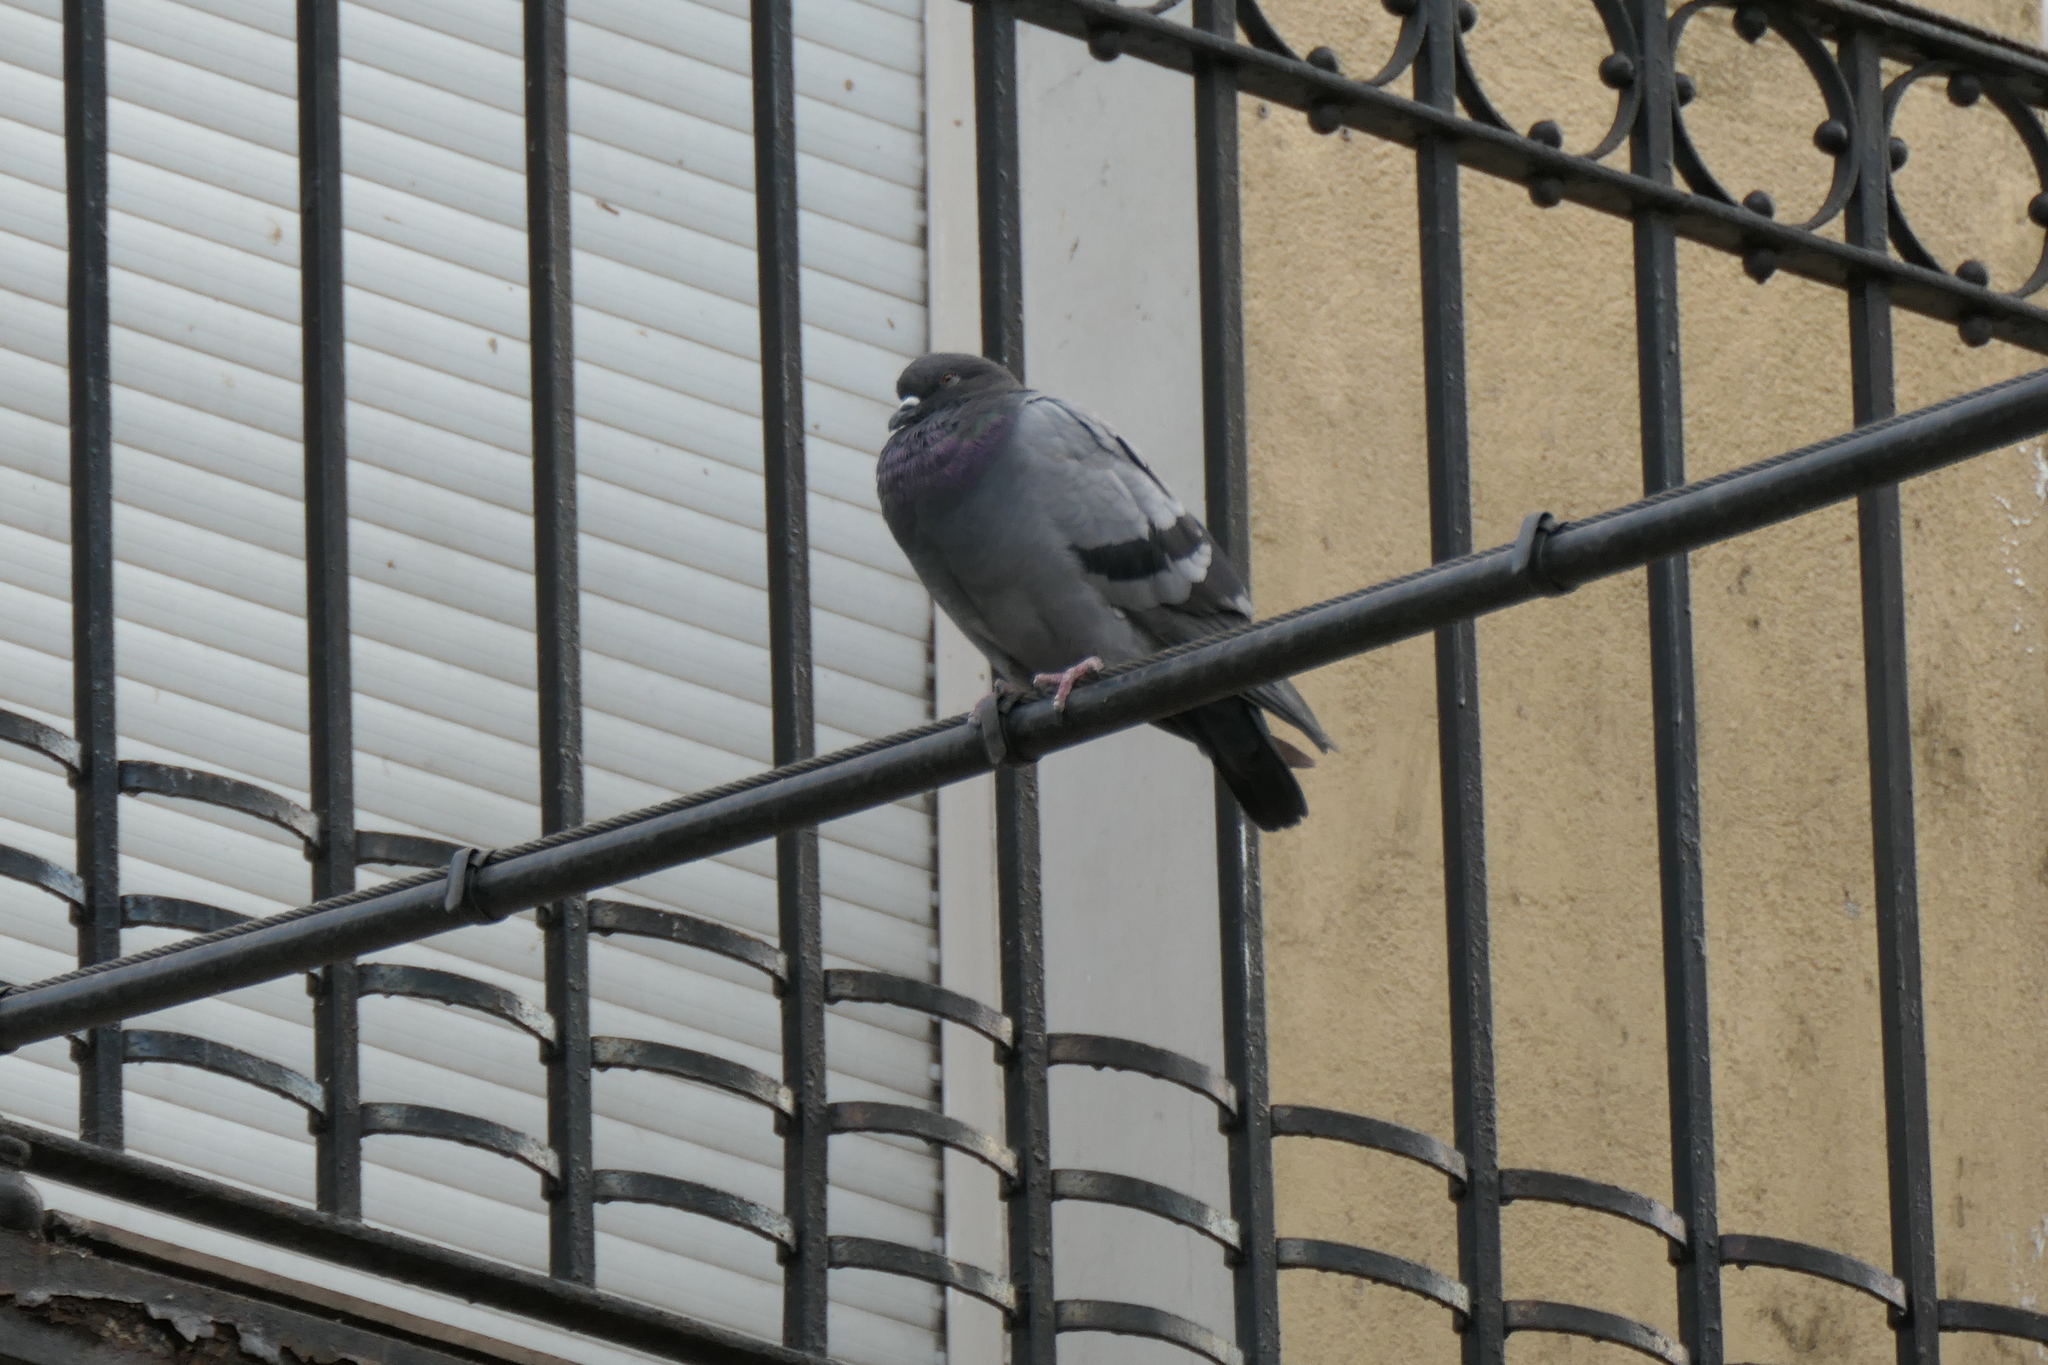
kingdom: Animalia
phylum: Chordata
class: Aves
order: Columbiformes
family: Columbidae
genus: Columba
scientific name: Columba livia
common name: Rock pigeon
